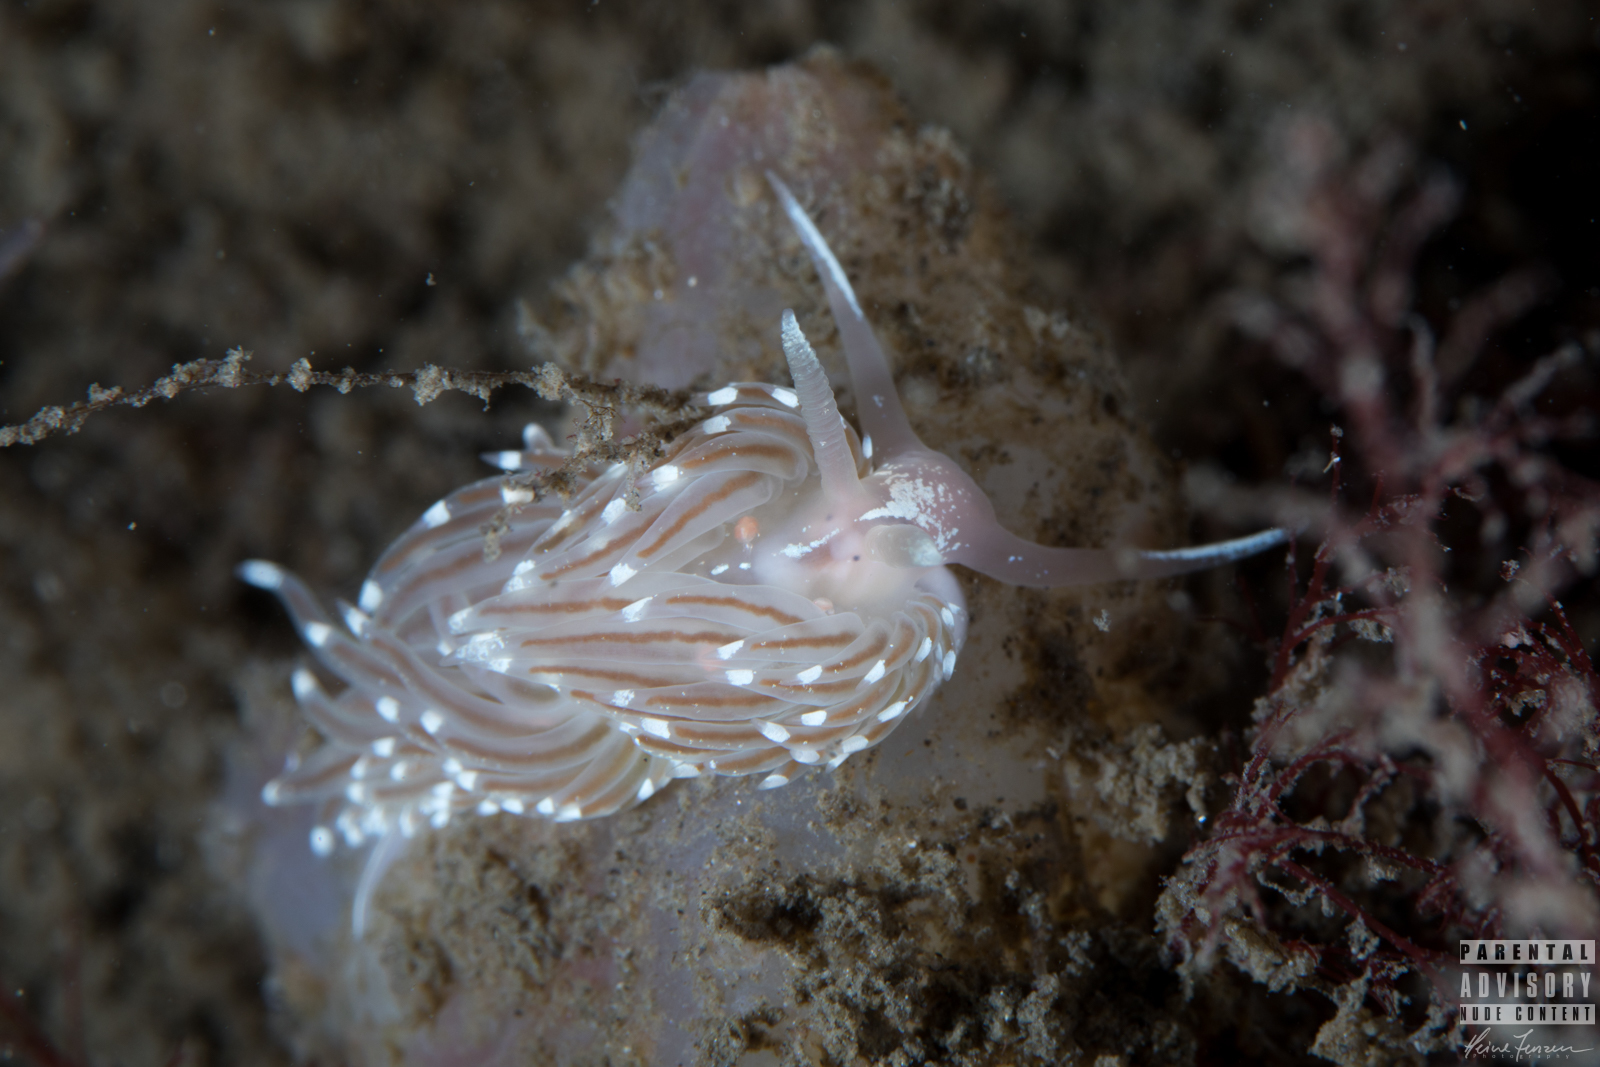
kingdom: Animalia
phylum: Mollusca
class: Gastropoda
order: Nudibranchia
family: Facelinidae
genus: Facelina
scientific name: Facelina bostoniensis
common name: Boston facelina
